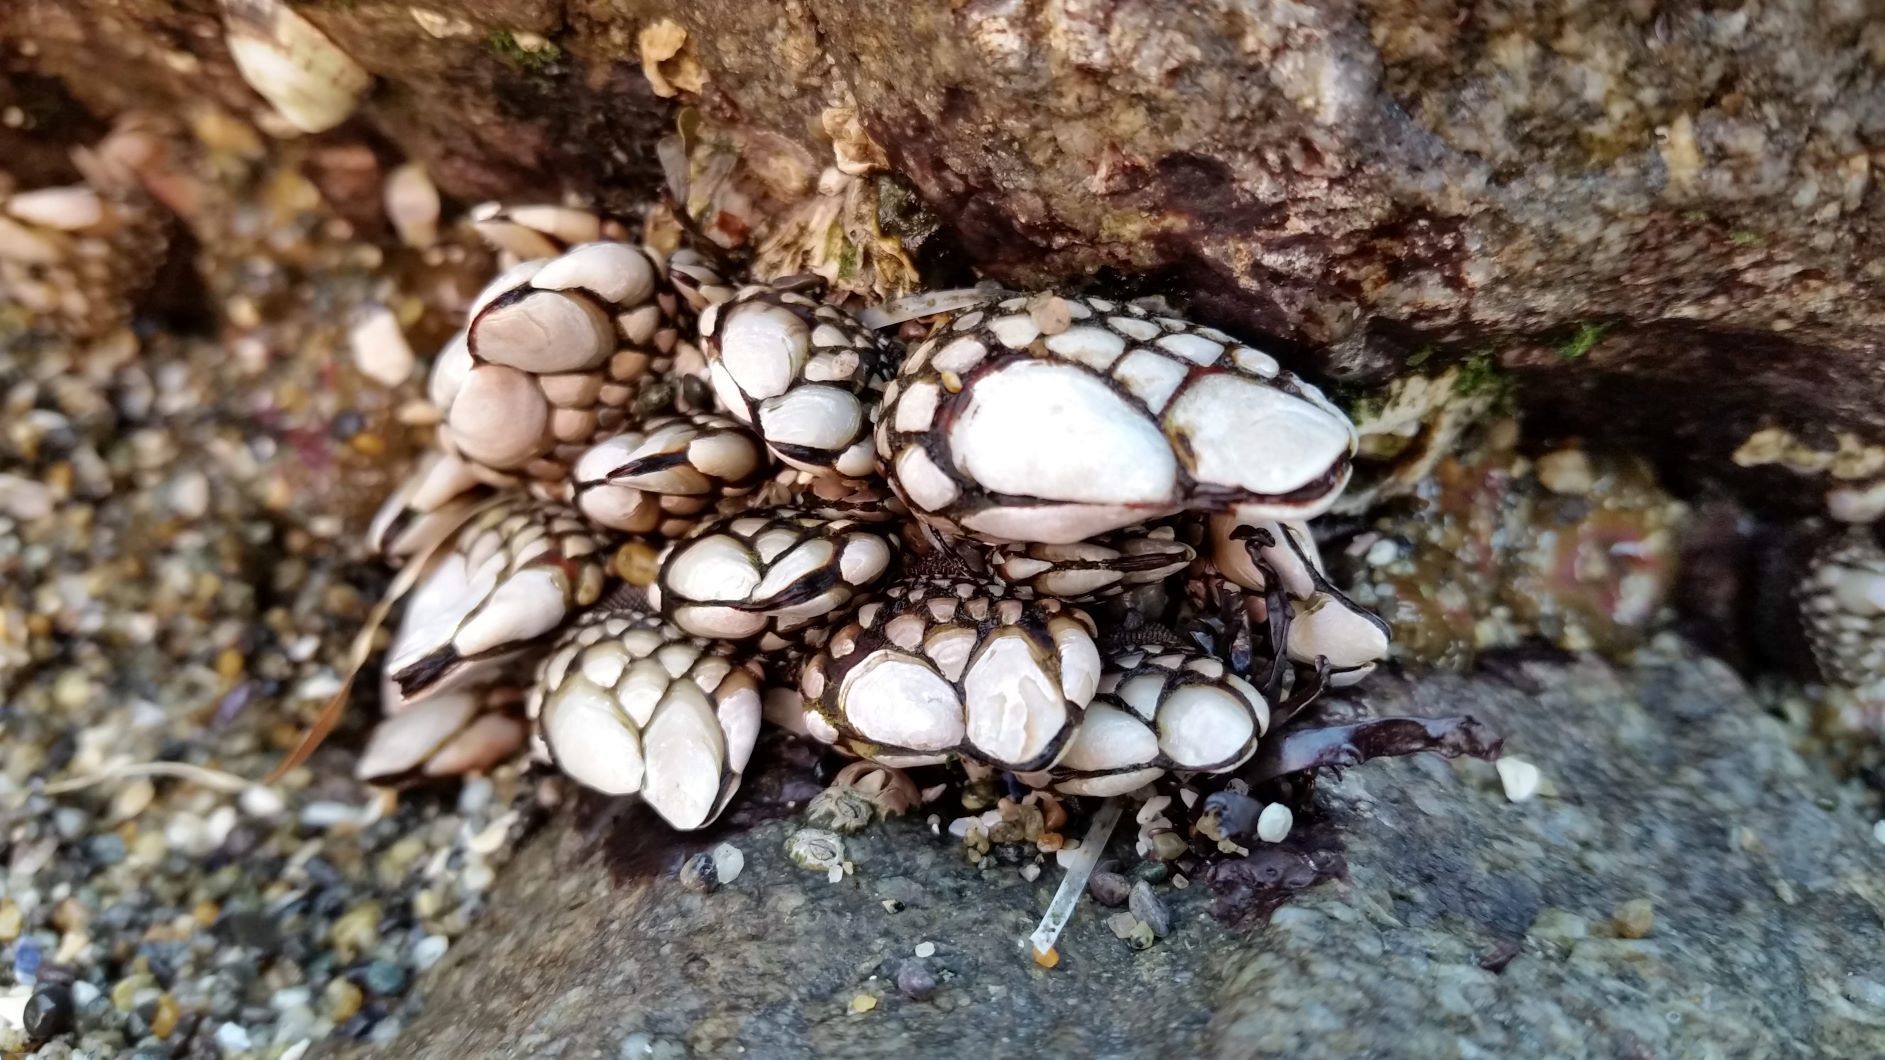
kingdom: Animalia
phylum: Arthropoda
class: Maxillopoda
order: Pedunculata
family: Pollicipedidae
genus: Pollicipes
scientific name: Pollicipes polymerus
